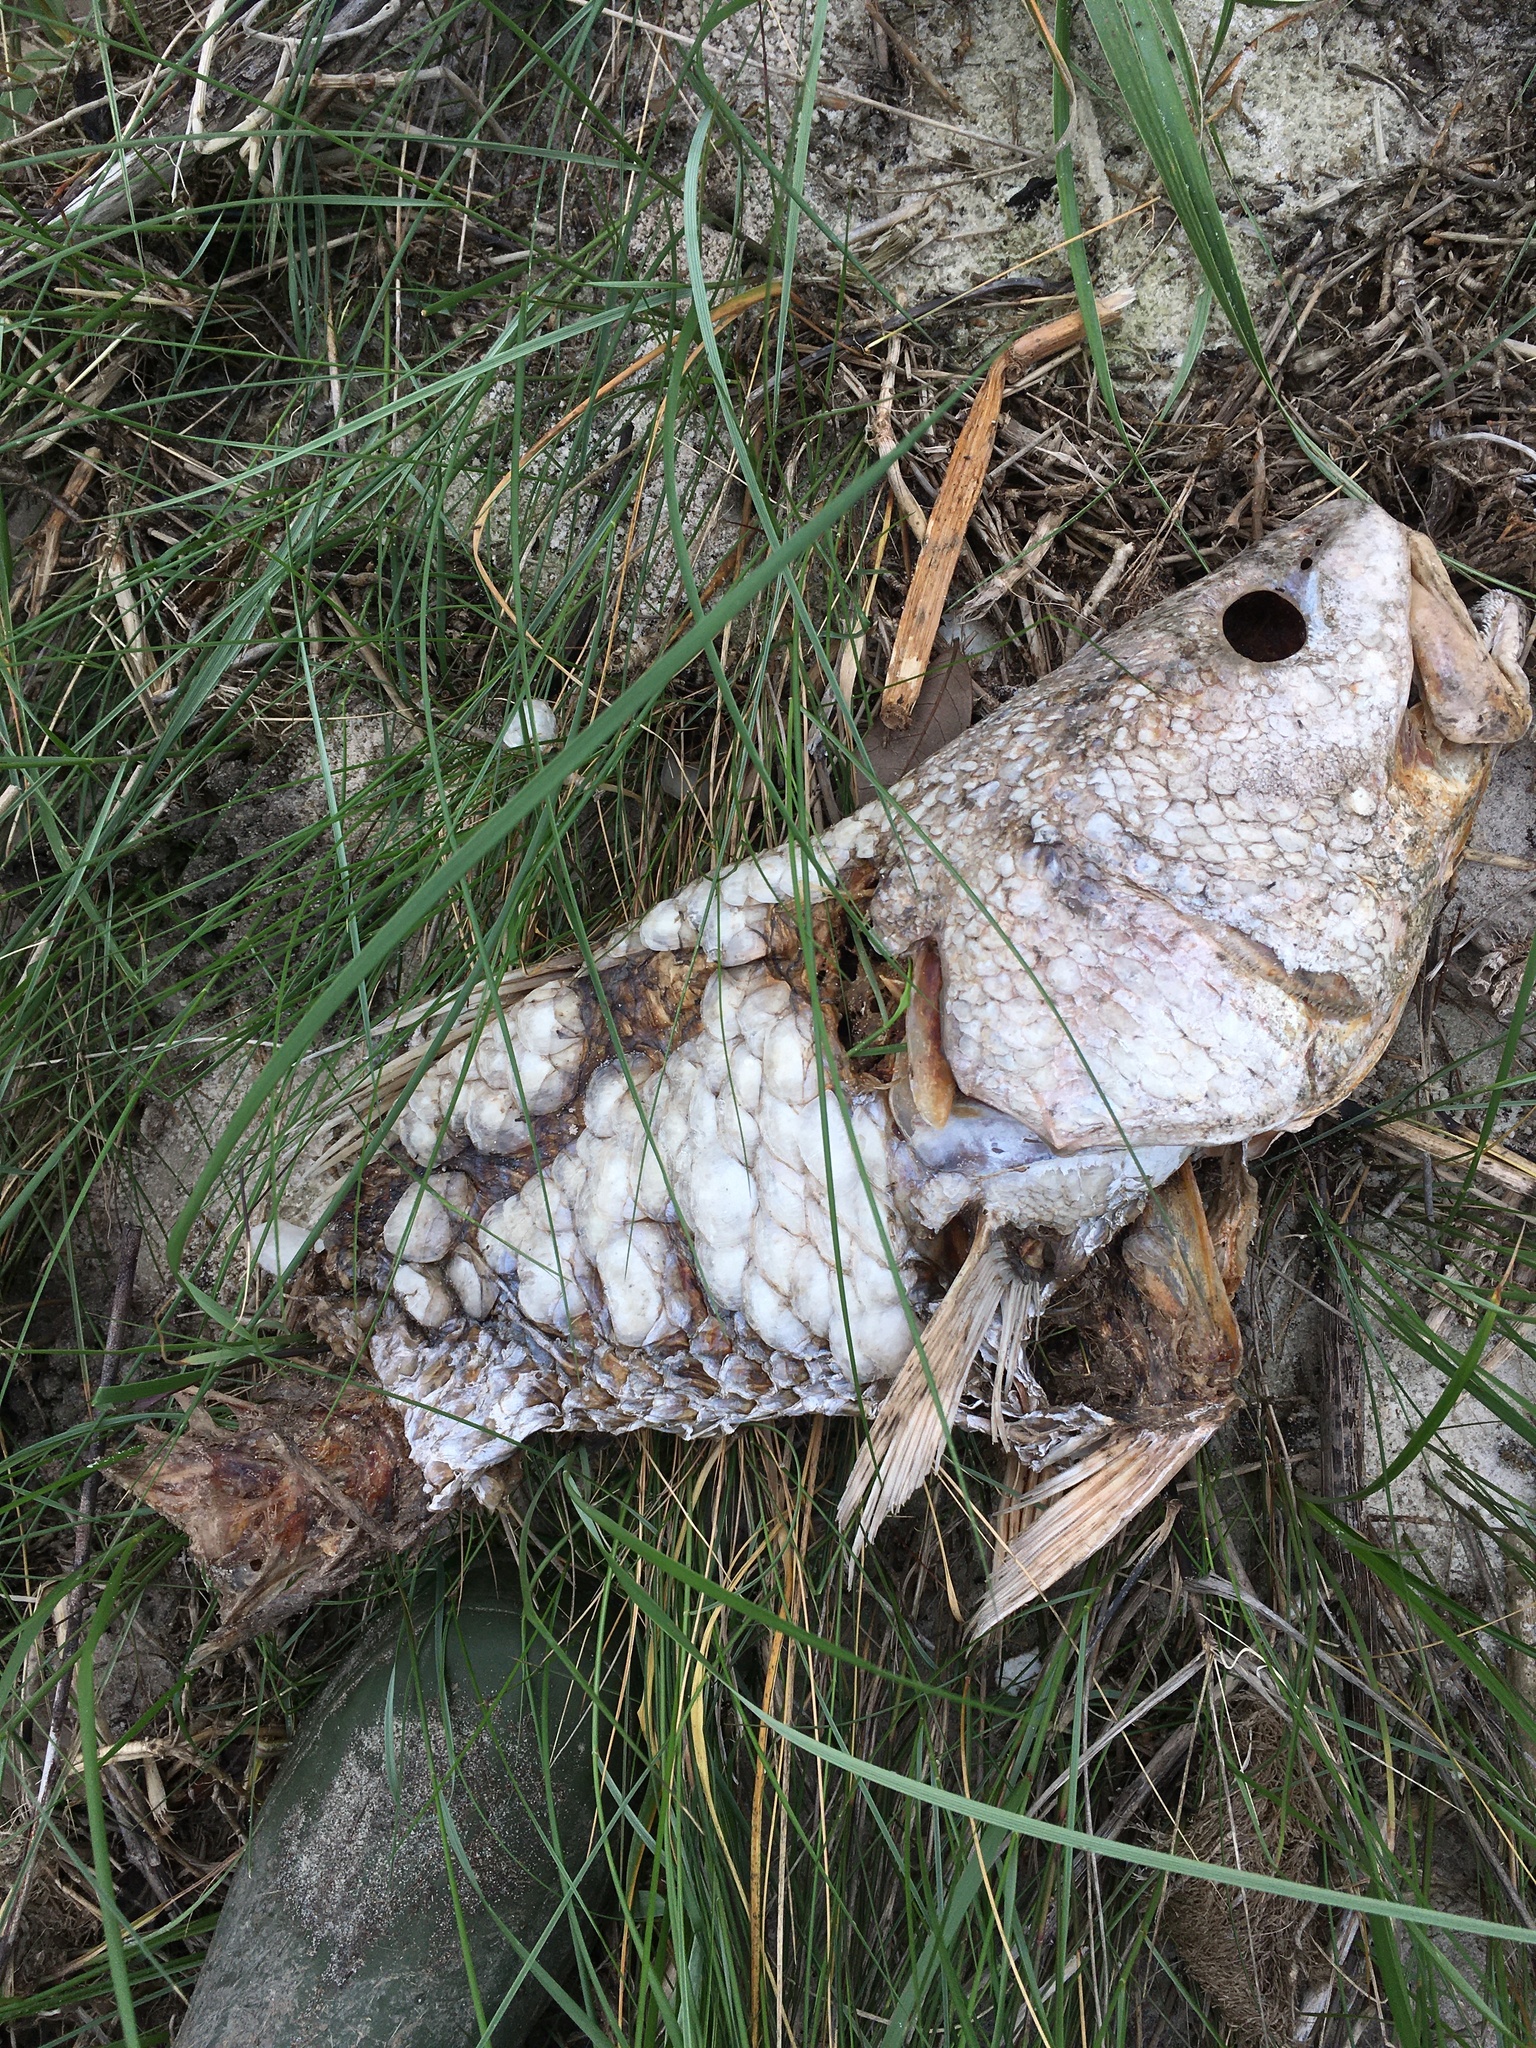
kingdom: Animalia
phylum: Chordata
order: Perciformes
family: Sciaenidae
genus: Sciaenops
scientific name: Sciaenops ocellatus
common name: Red drum
